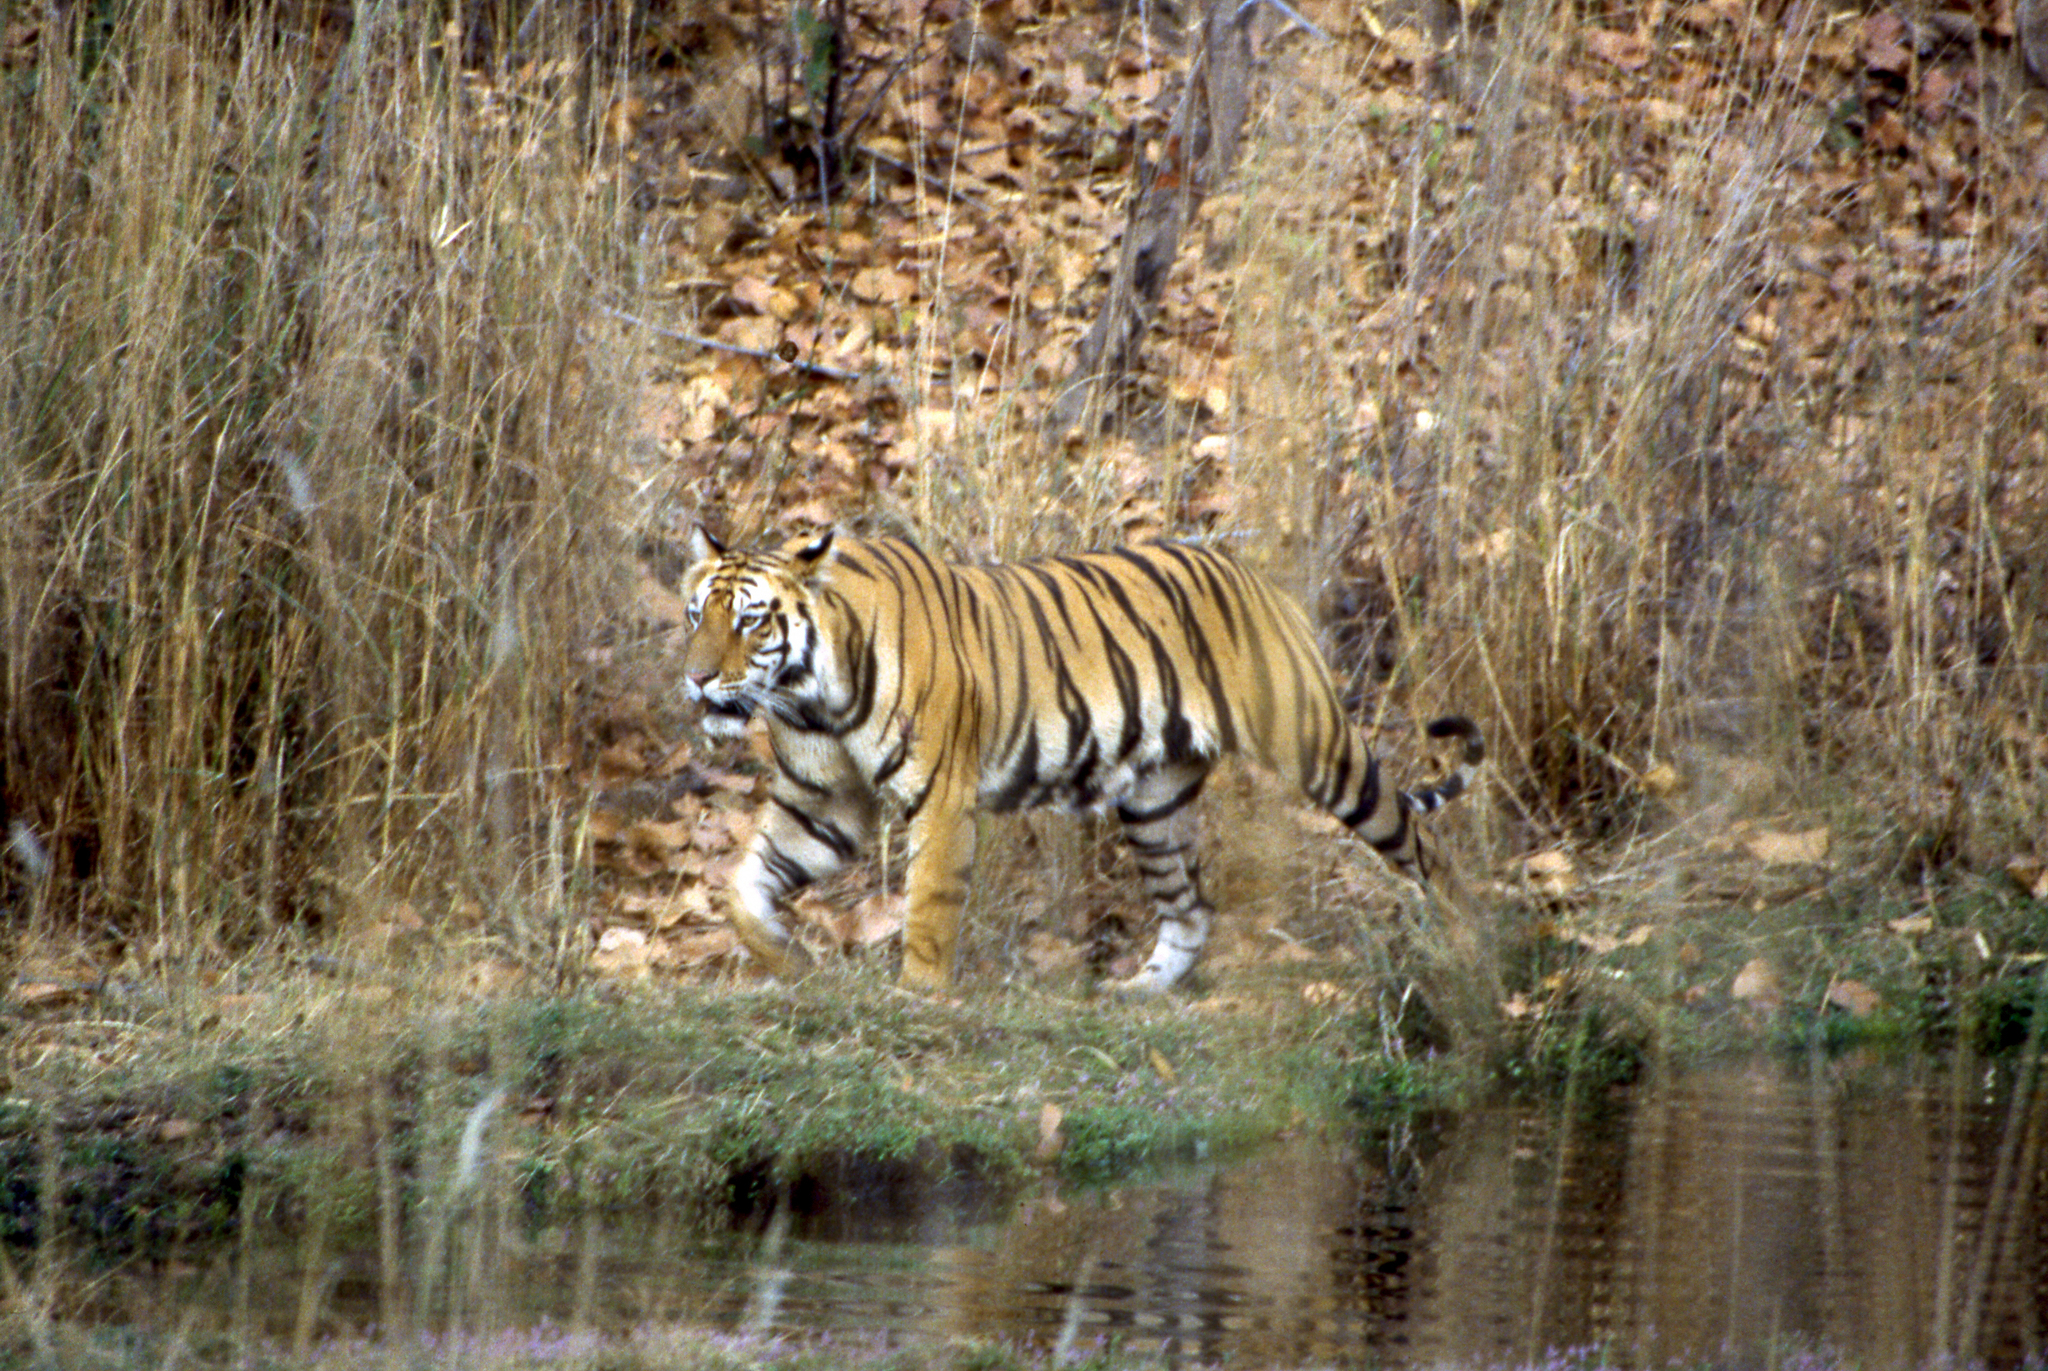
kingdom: Animalia
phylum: Chordata
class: Mammalia
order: Carnivora
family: Felidae
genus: Panthera
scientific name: Panthera tigris
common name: Tiger
